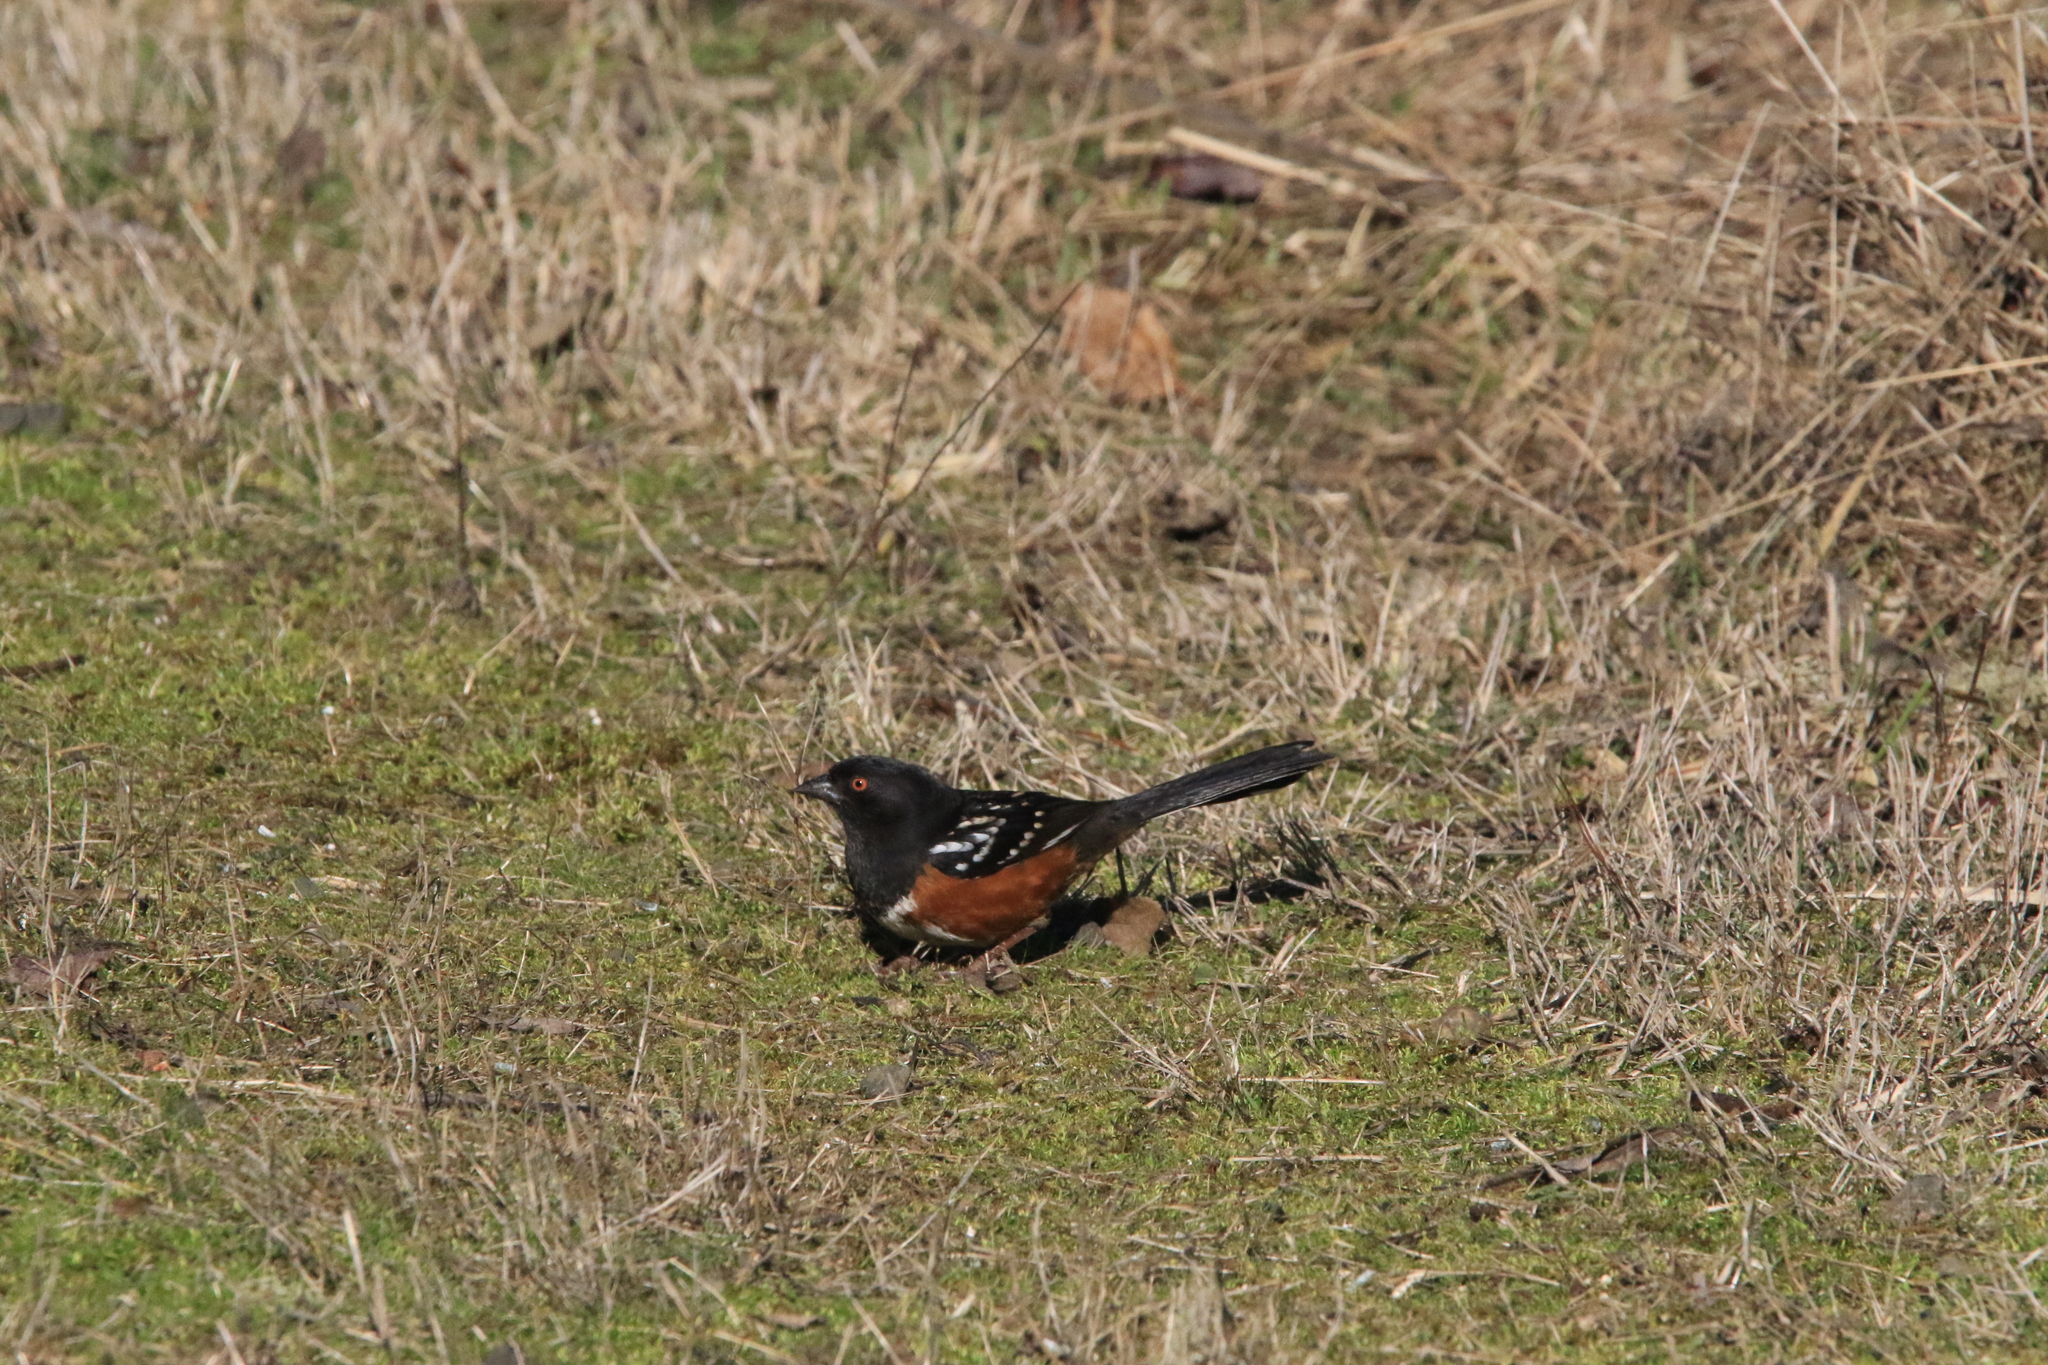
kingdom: Animalia
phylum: Chordata
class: Aves
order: Passeriformes
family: Passerellidae
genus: Pipilo
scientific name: Pipilo maculatus
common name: Spotted towhee
